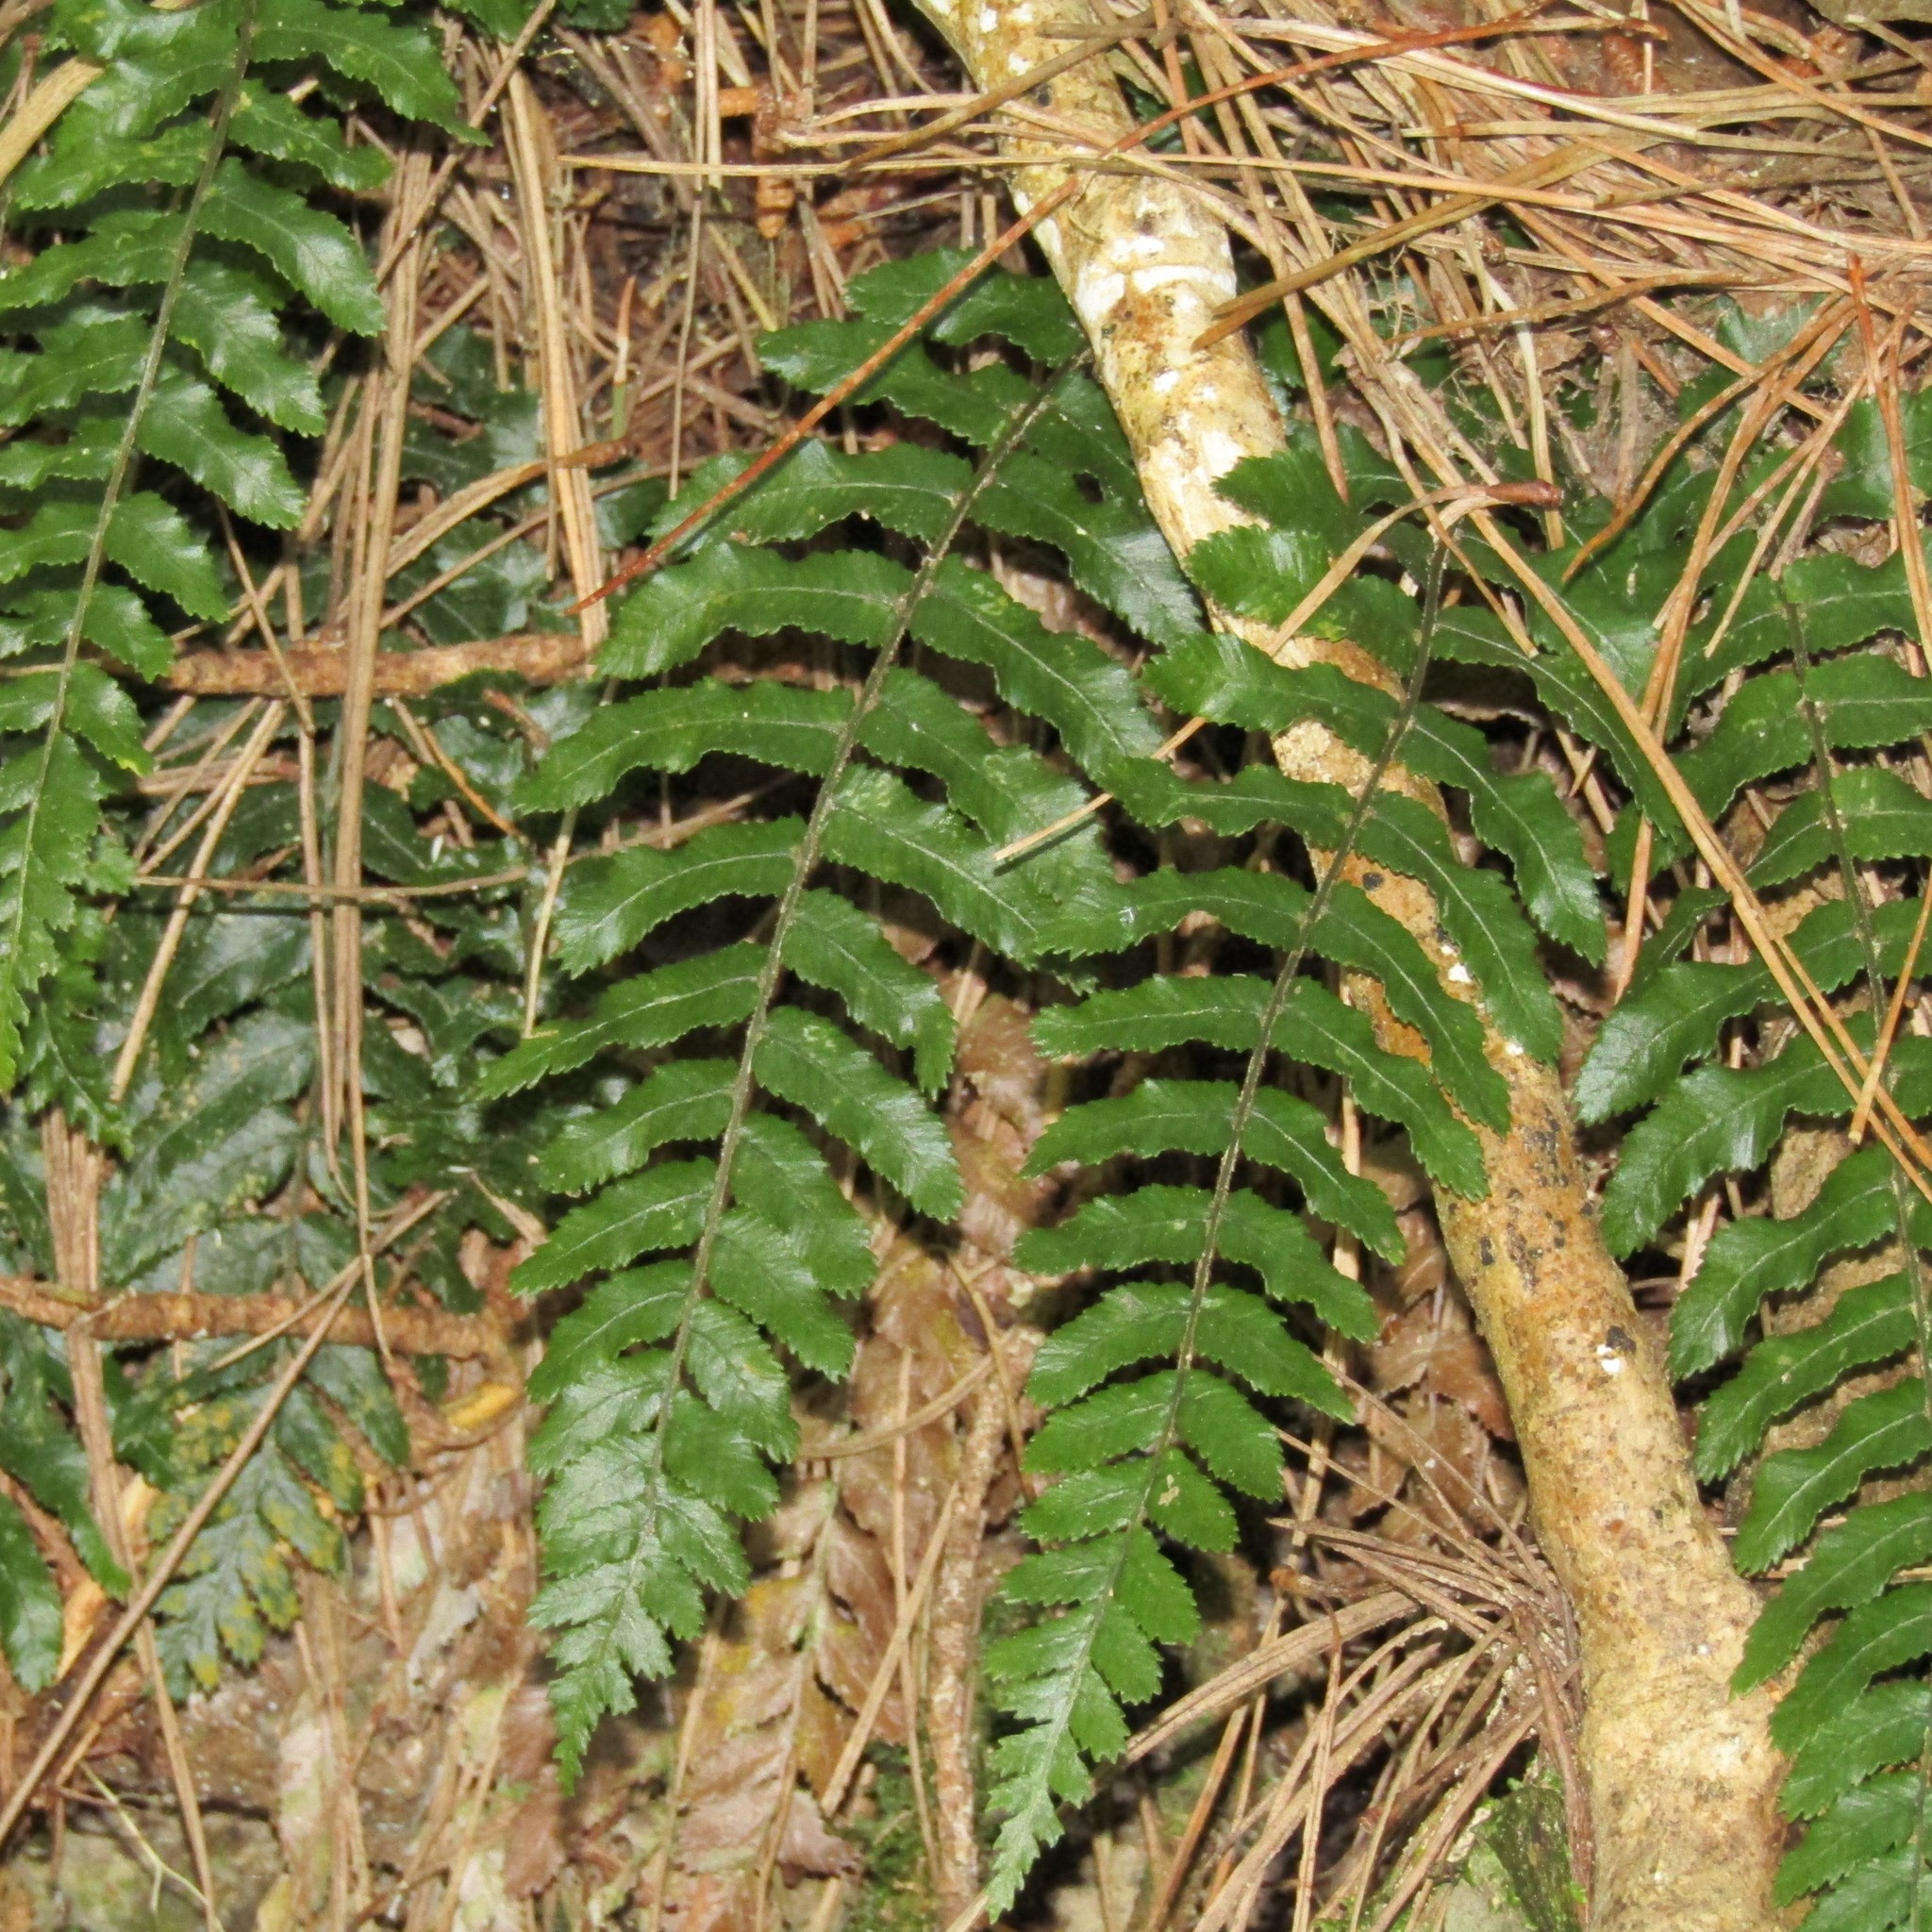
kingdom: Plantae
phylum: Tracheophyta
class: Polypodiopsida
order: Polypodiales
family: Blechnaceae
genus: Icarus
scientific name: Icarus filiformis
